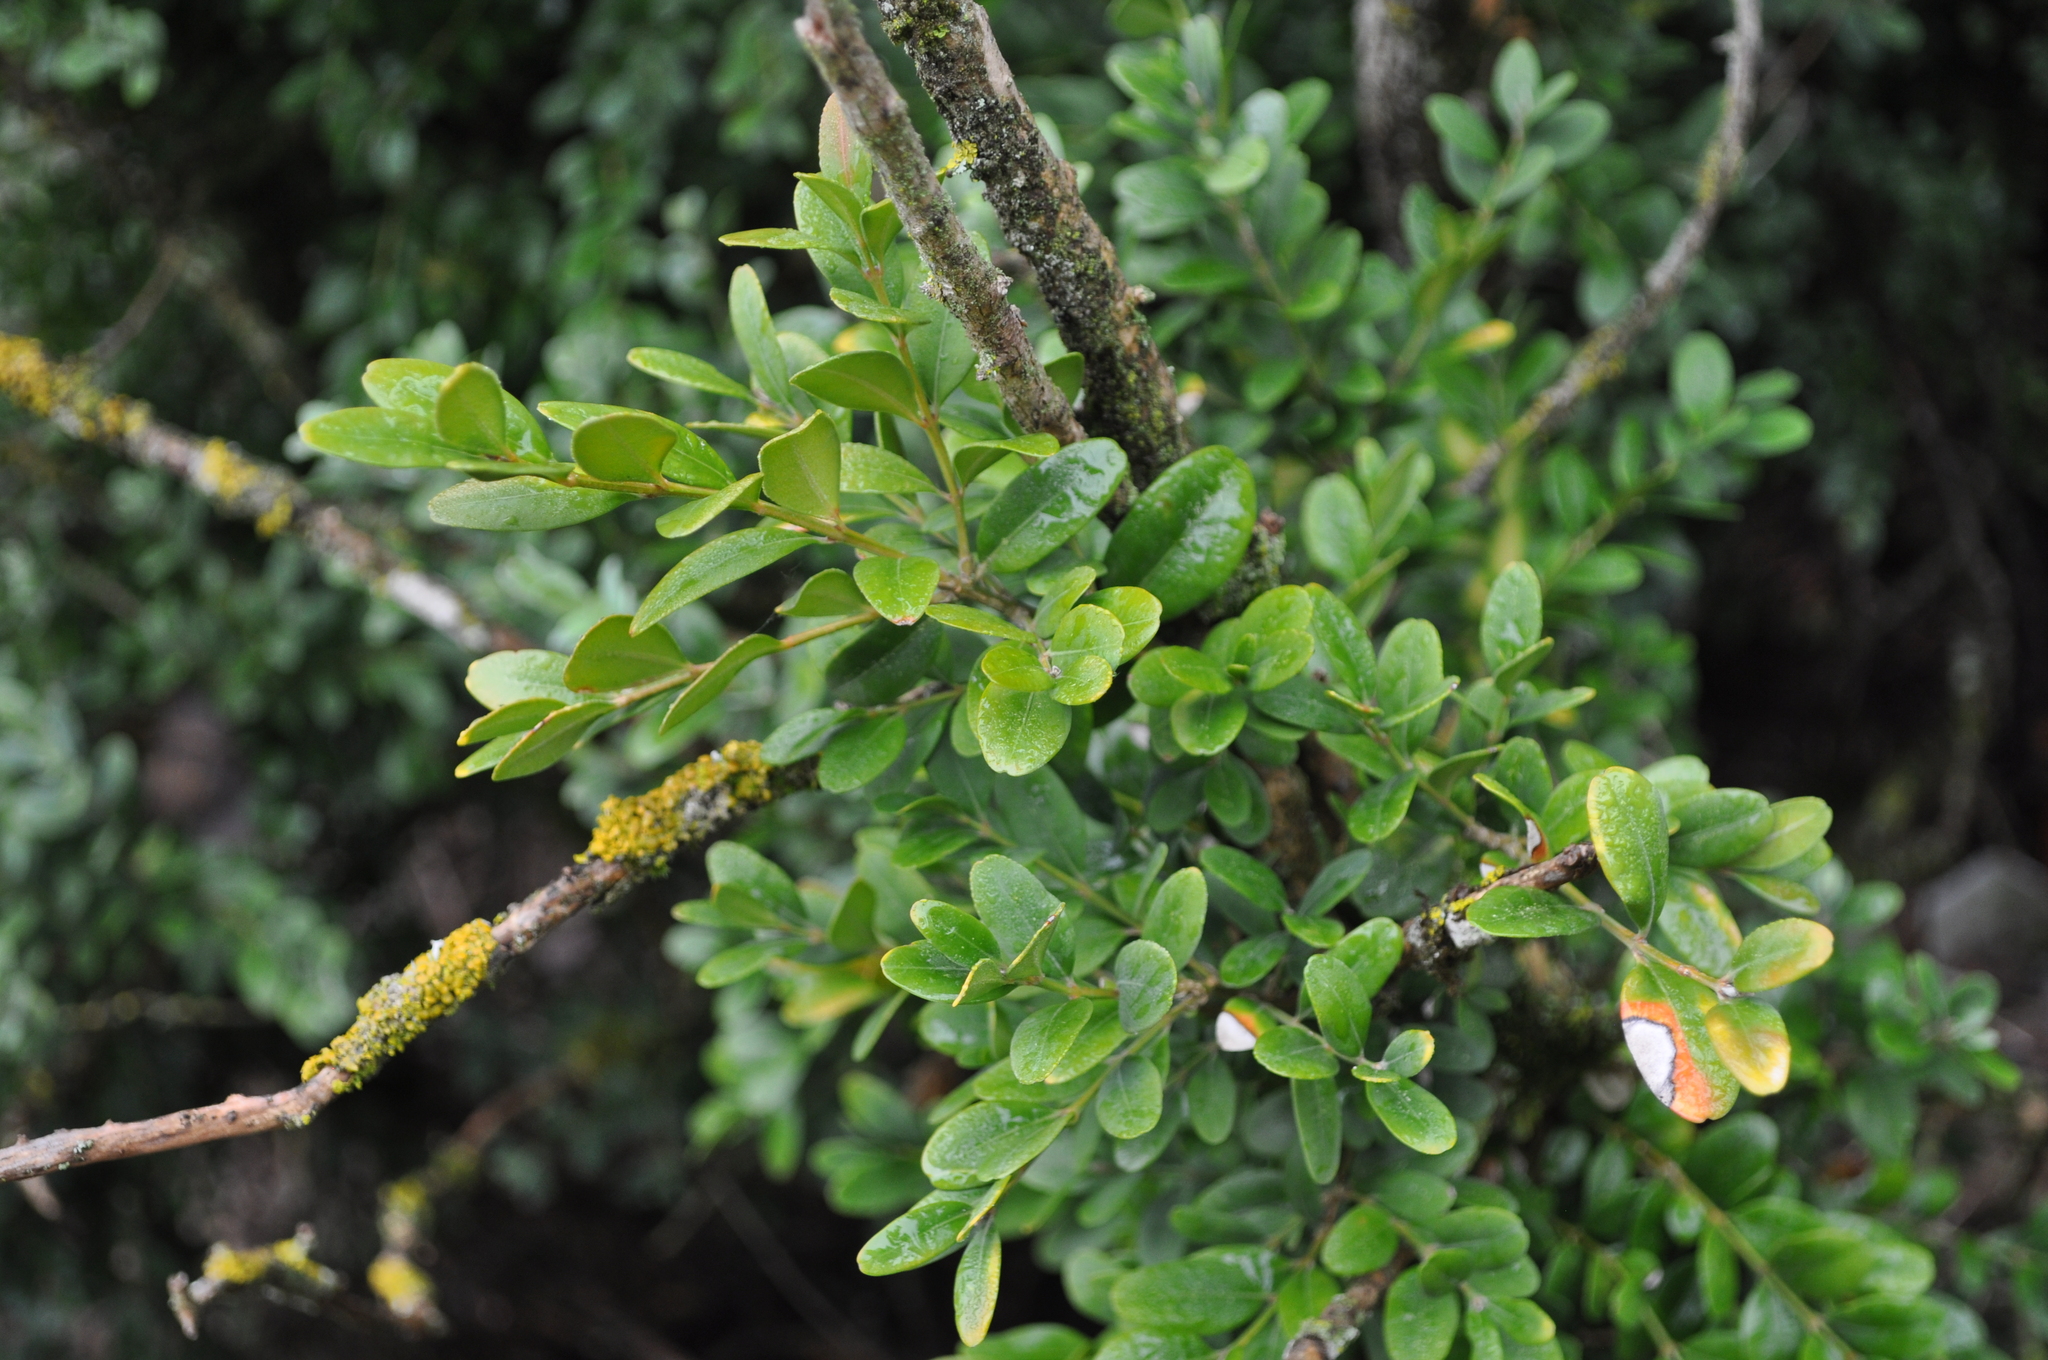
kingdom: Plantae
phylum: Tracheophyta
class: Magnoliopsida
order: Buxales
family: Buxaceae
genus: Buxus
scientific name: Buxus sempervirens
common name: Box
